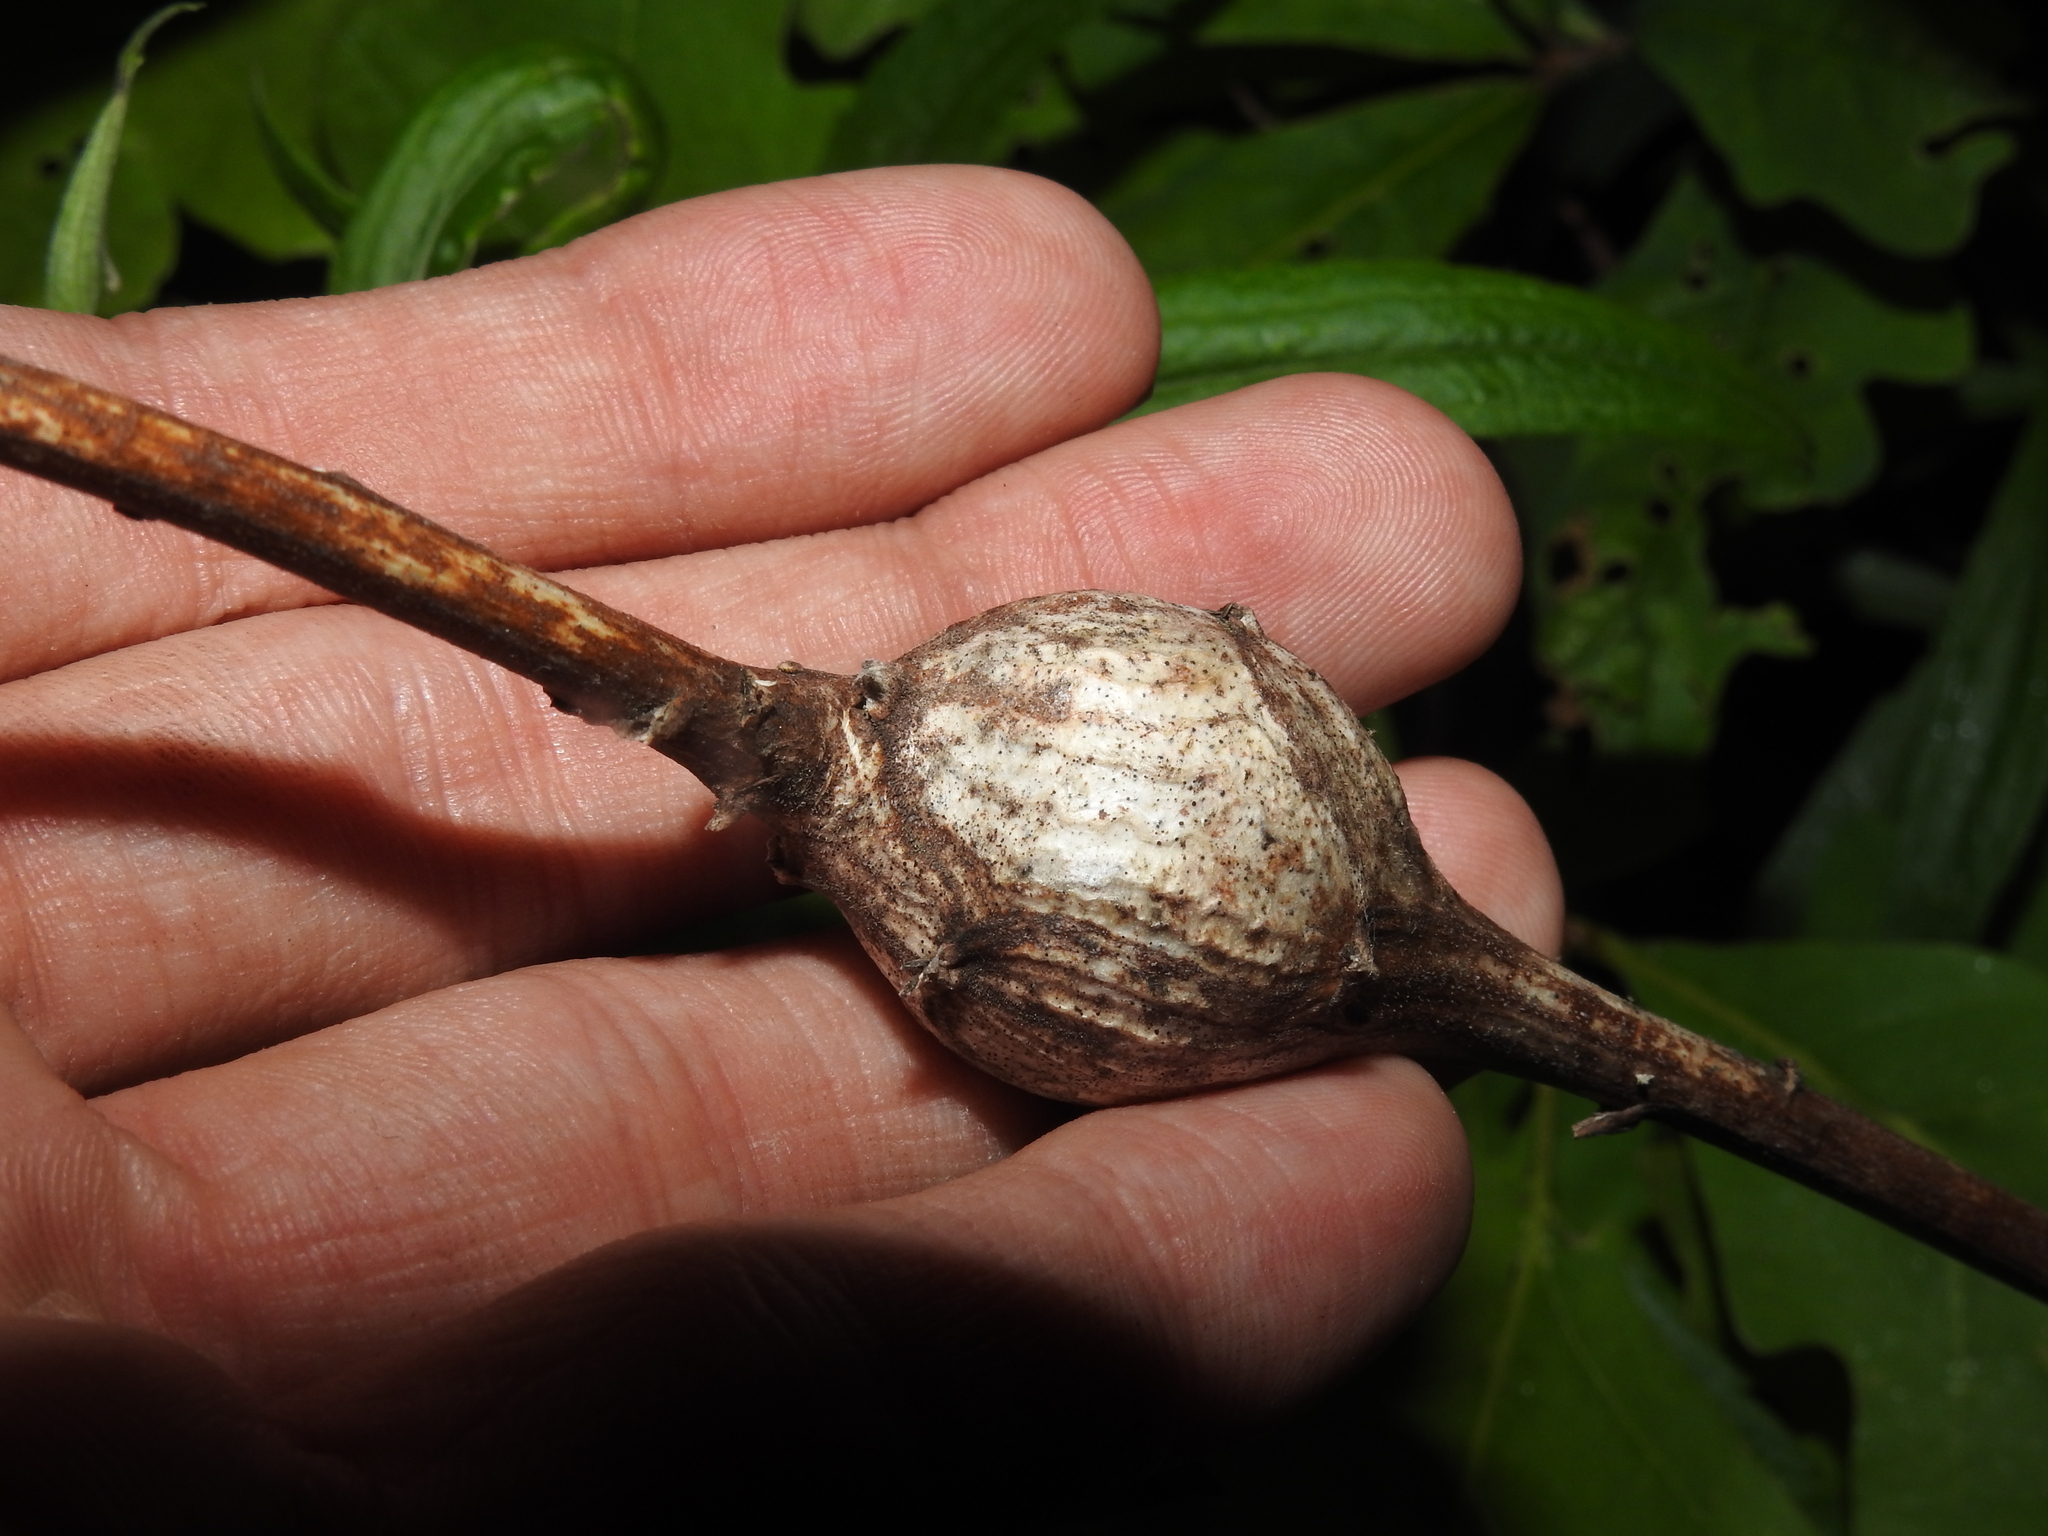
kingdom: Animalia
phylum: Arthropoda
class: Insecta
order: Diptera
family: Tephritidae
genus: Eurosta
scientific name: Eurosta solidaginis
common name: Goldenrod gall fly
